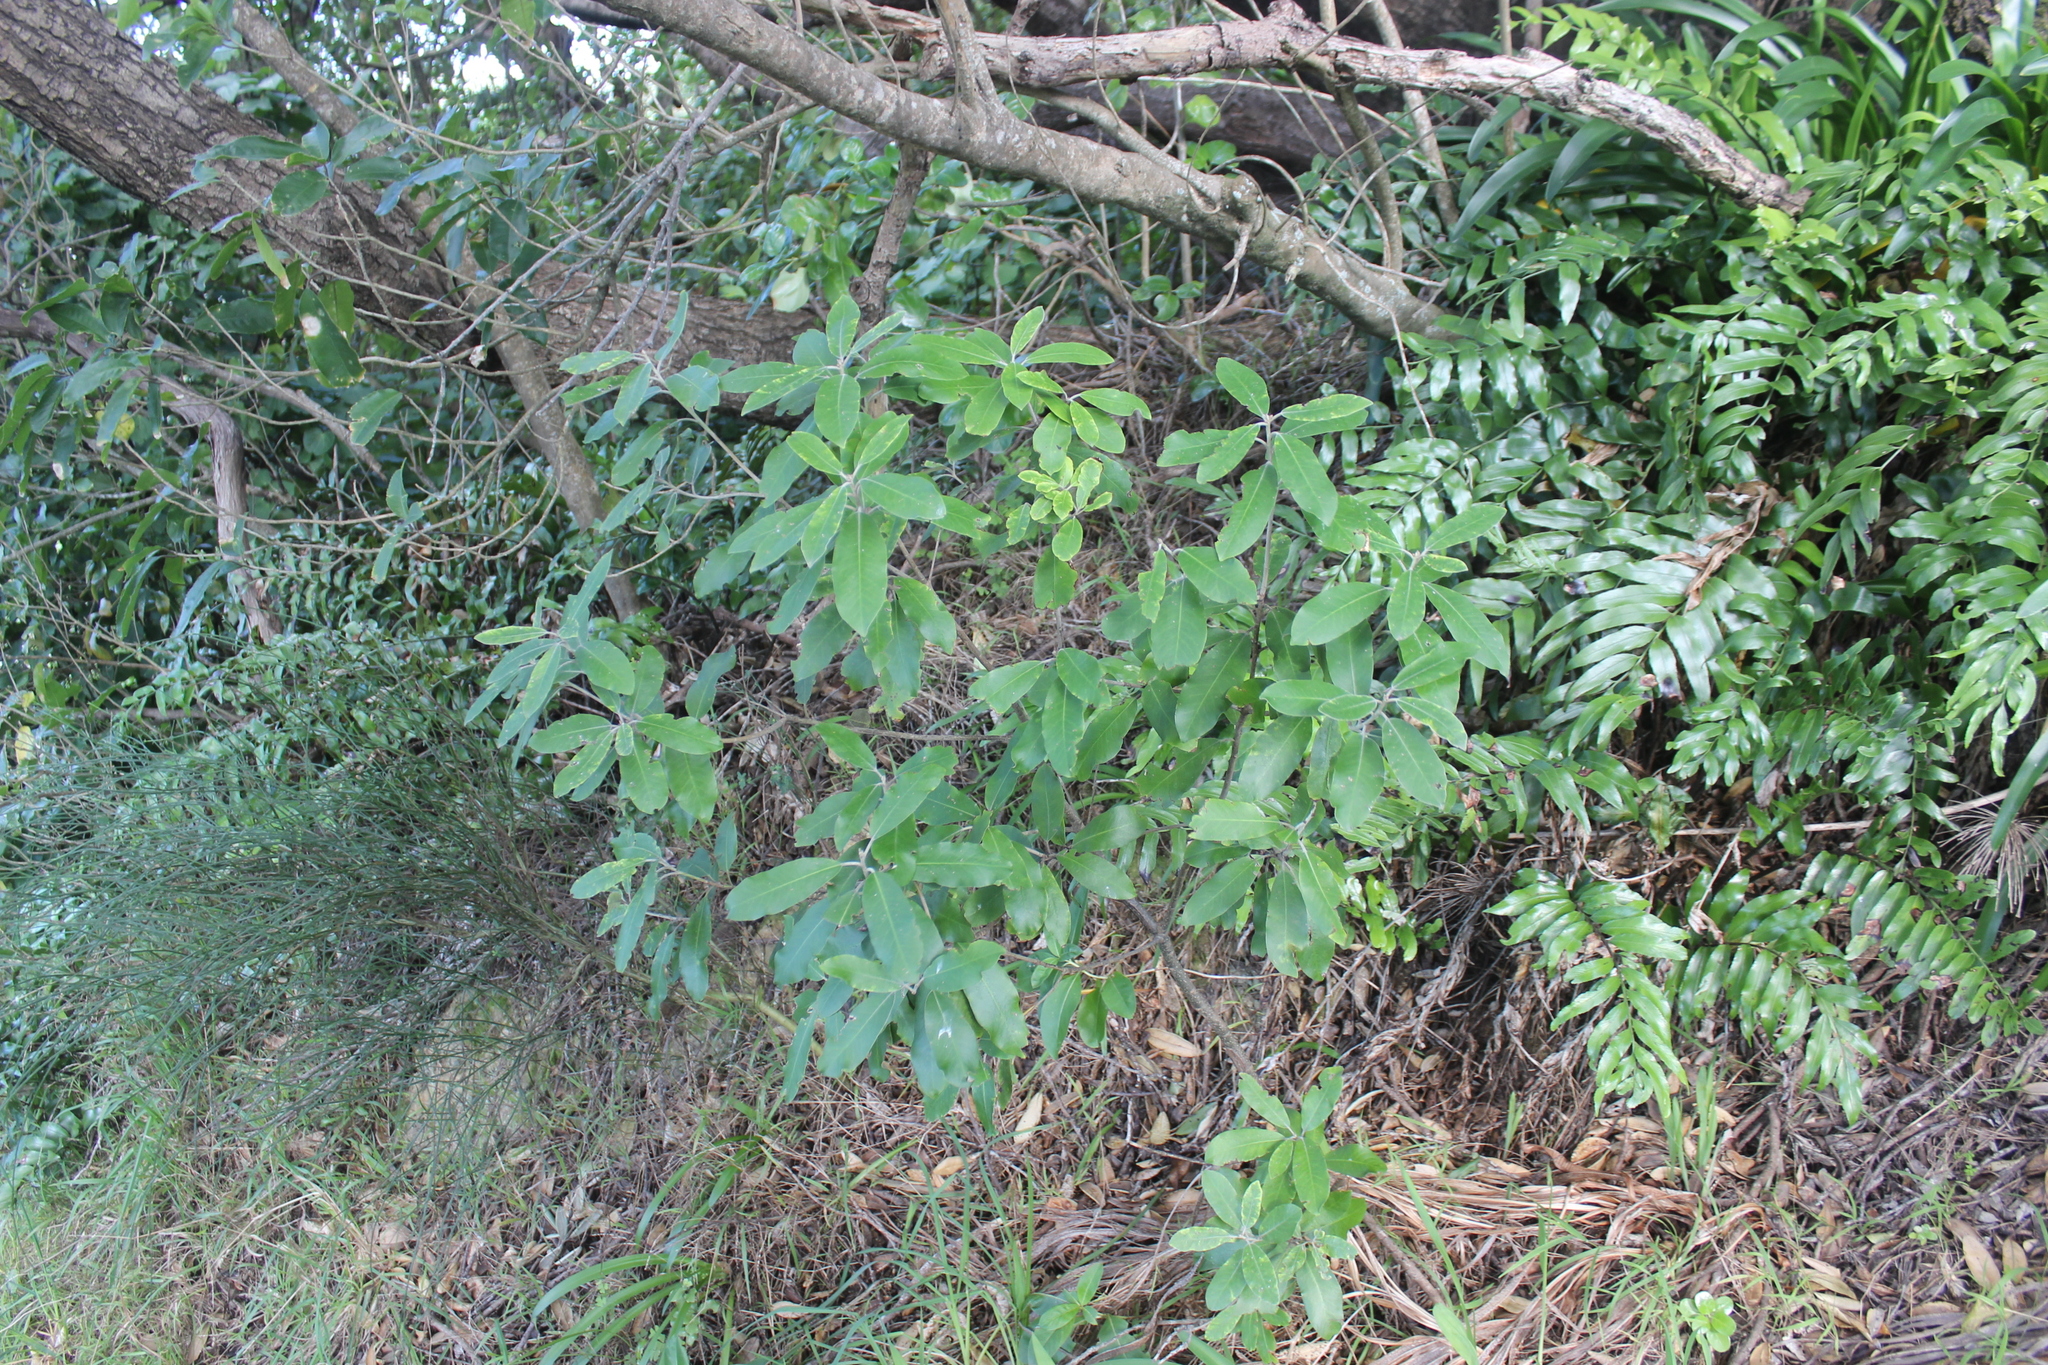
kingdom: Plantae
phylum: Tracheophyta
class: Magnoliopsida
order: Apiales
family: Pittosporaceae
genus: Pittosporum
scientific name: Pittosporum ralphii
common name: Ralph's desertwillow
